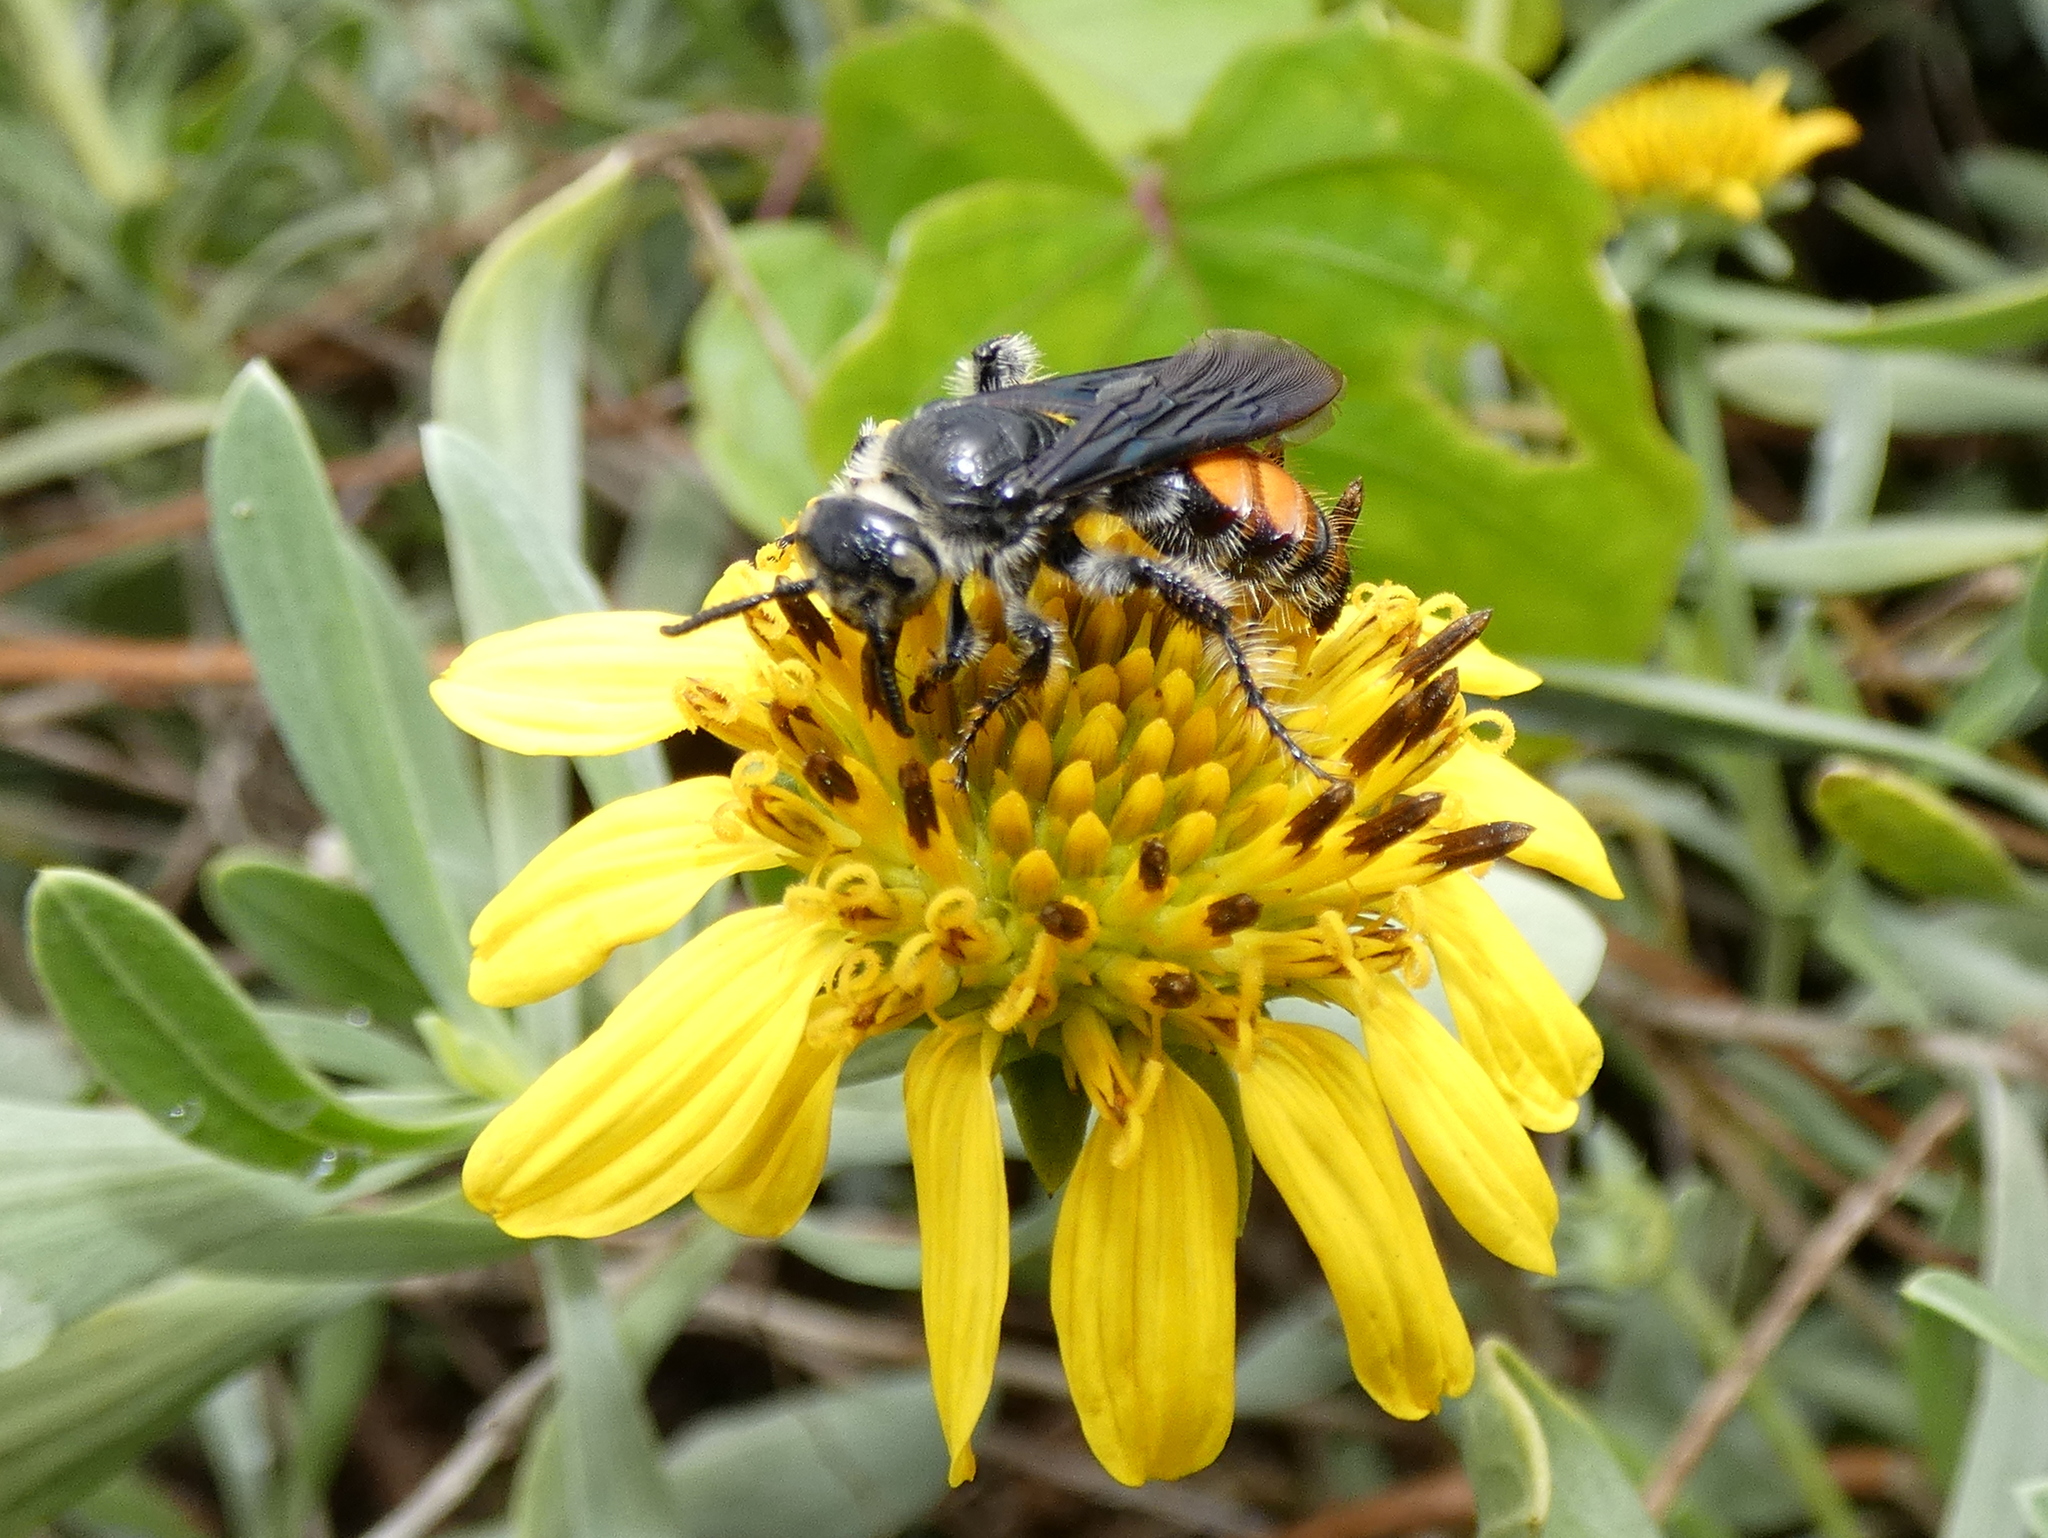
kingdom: Animalia
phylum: Arthropoda
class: Insecta
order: Hymenoptera
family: Scoliidae
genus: Dielis
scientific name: Dielis dorsata
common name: Scoliid wasp
